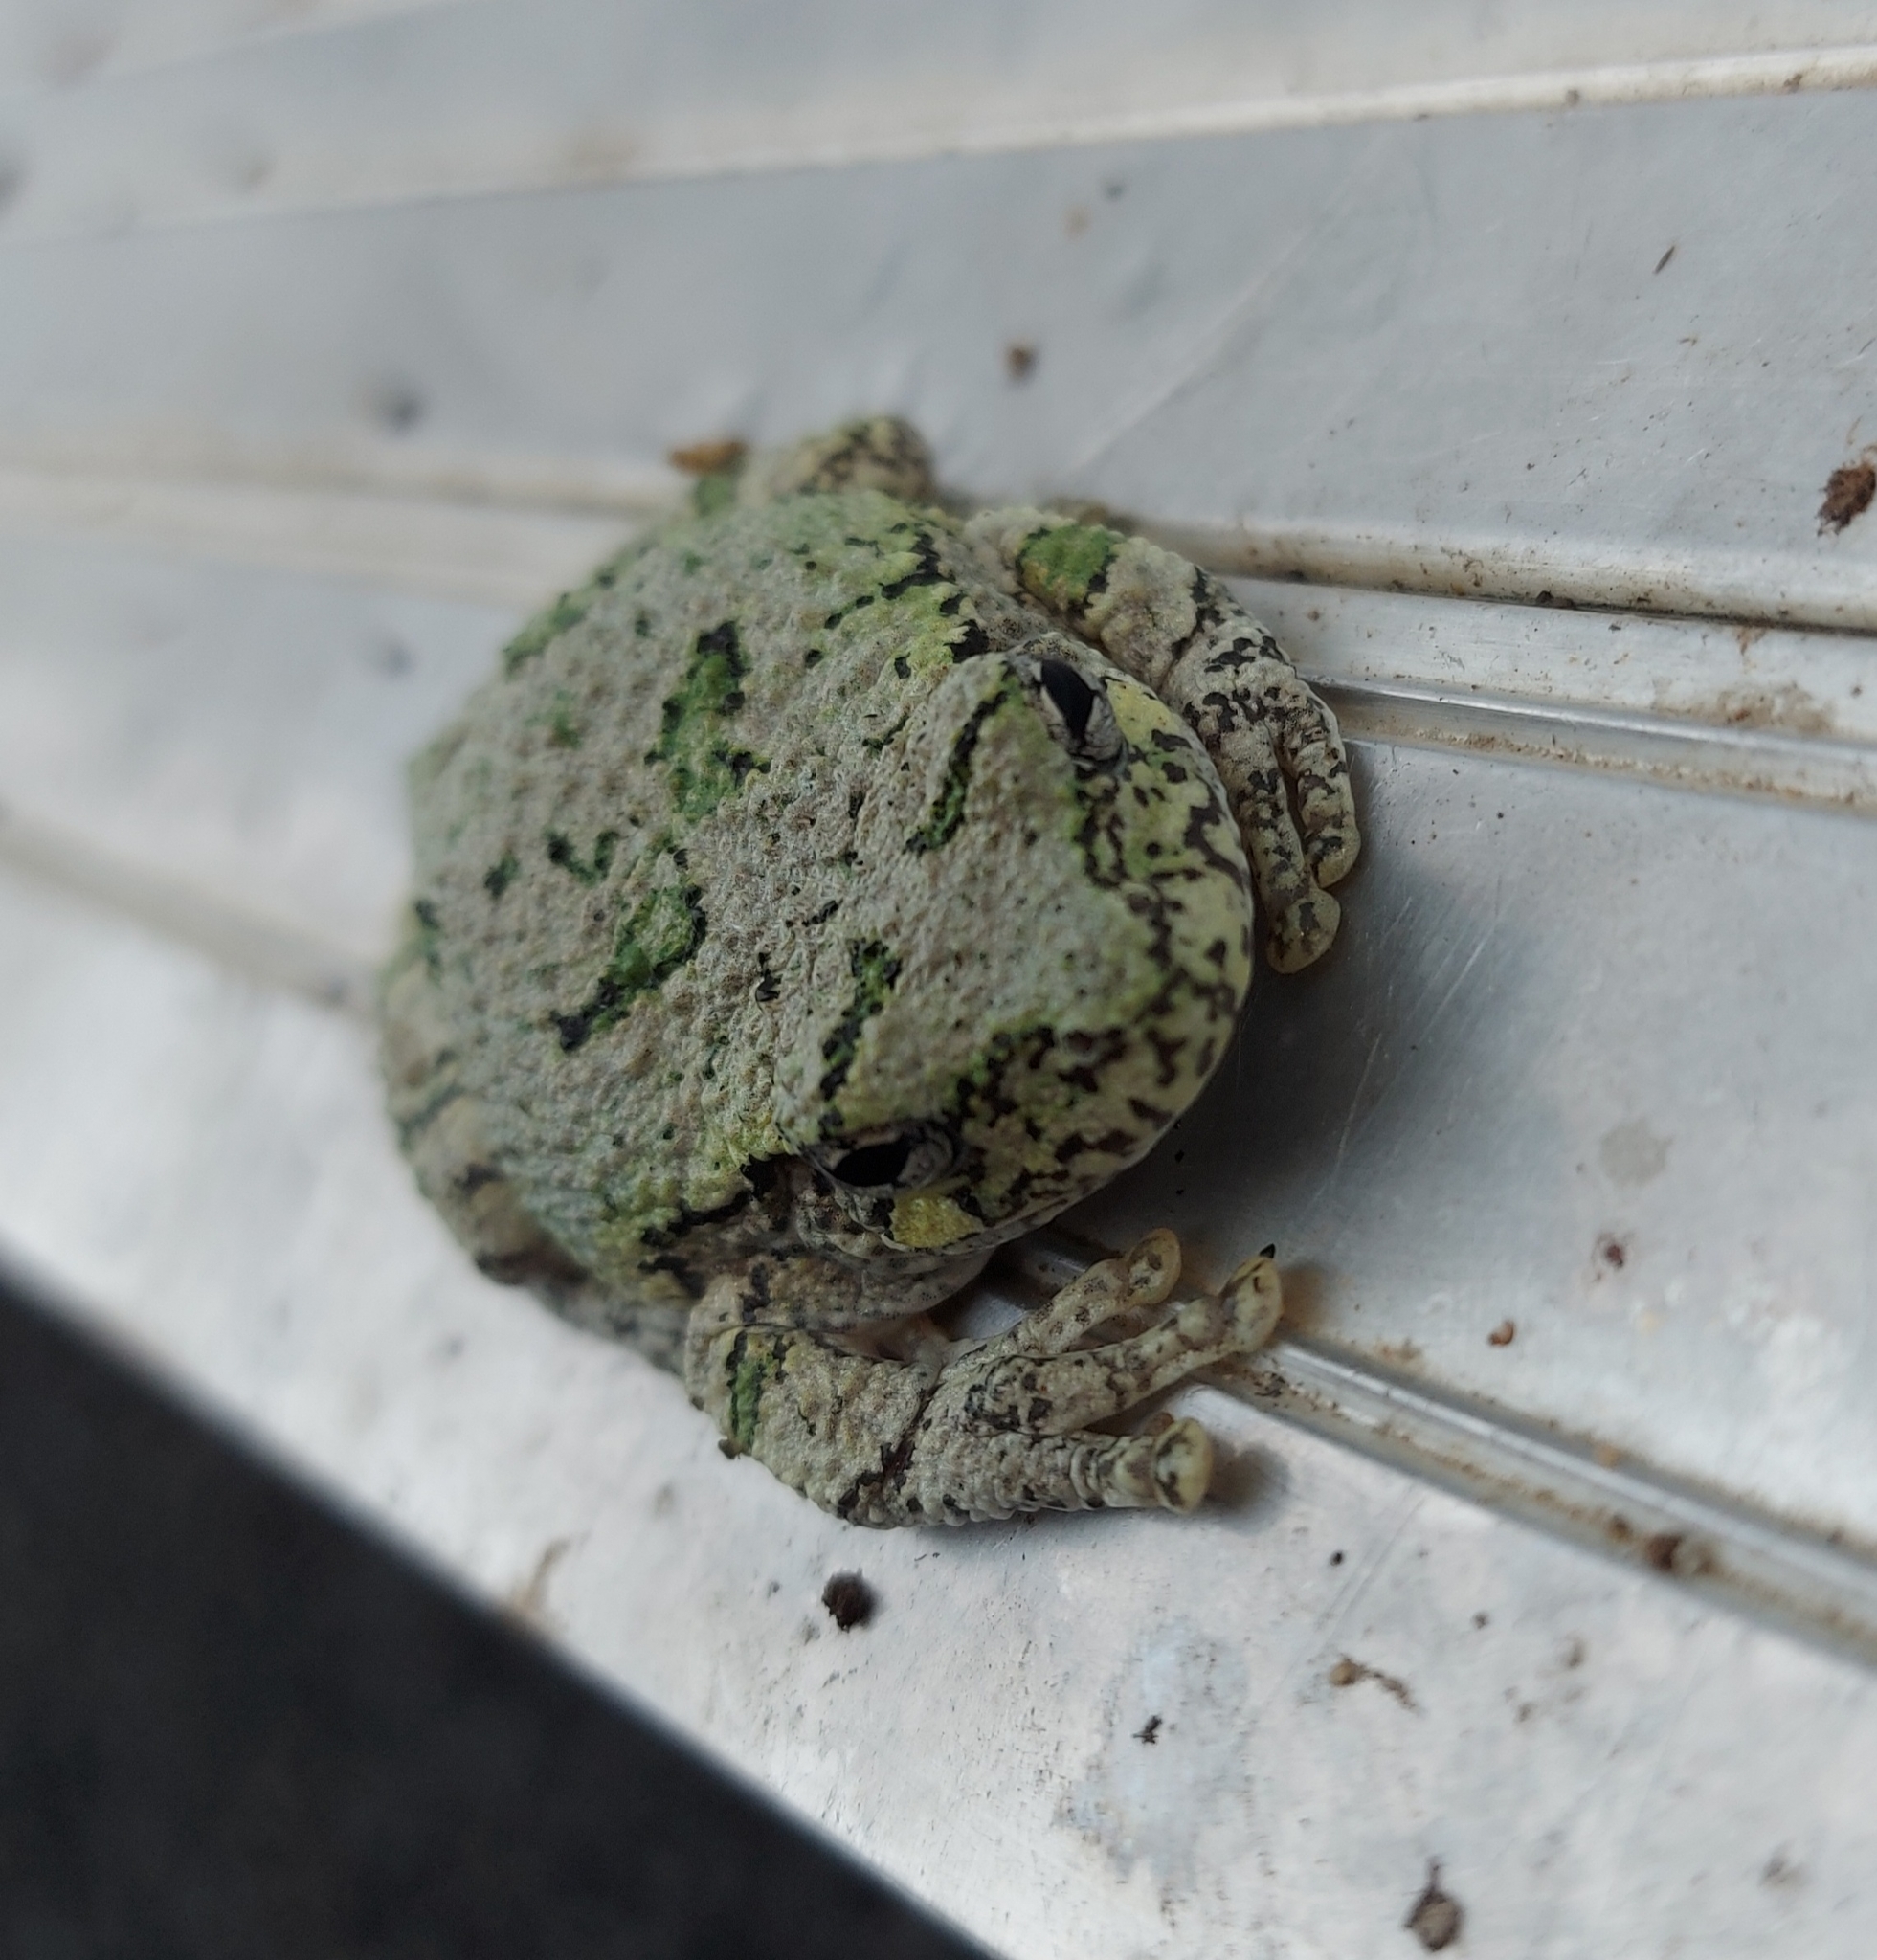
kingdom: Animalia
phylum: Chordata
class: Amphibia
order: Anura
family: Hylidae
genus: Dryophytes
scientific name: Dryophytes versicolor
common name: Gray treefrog
